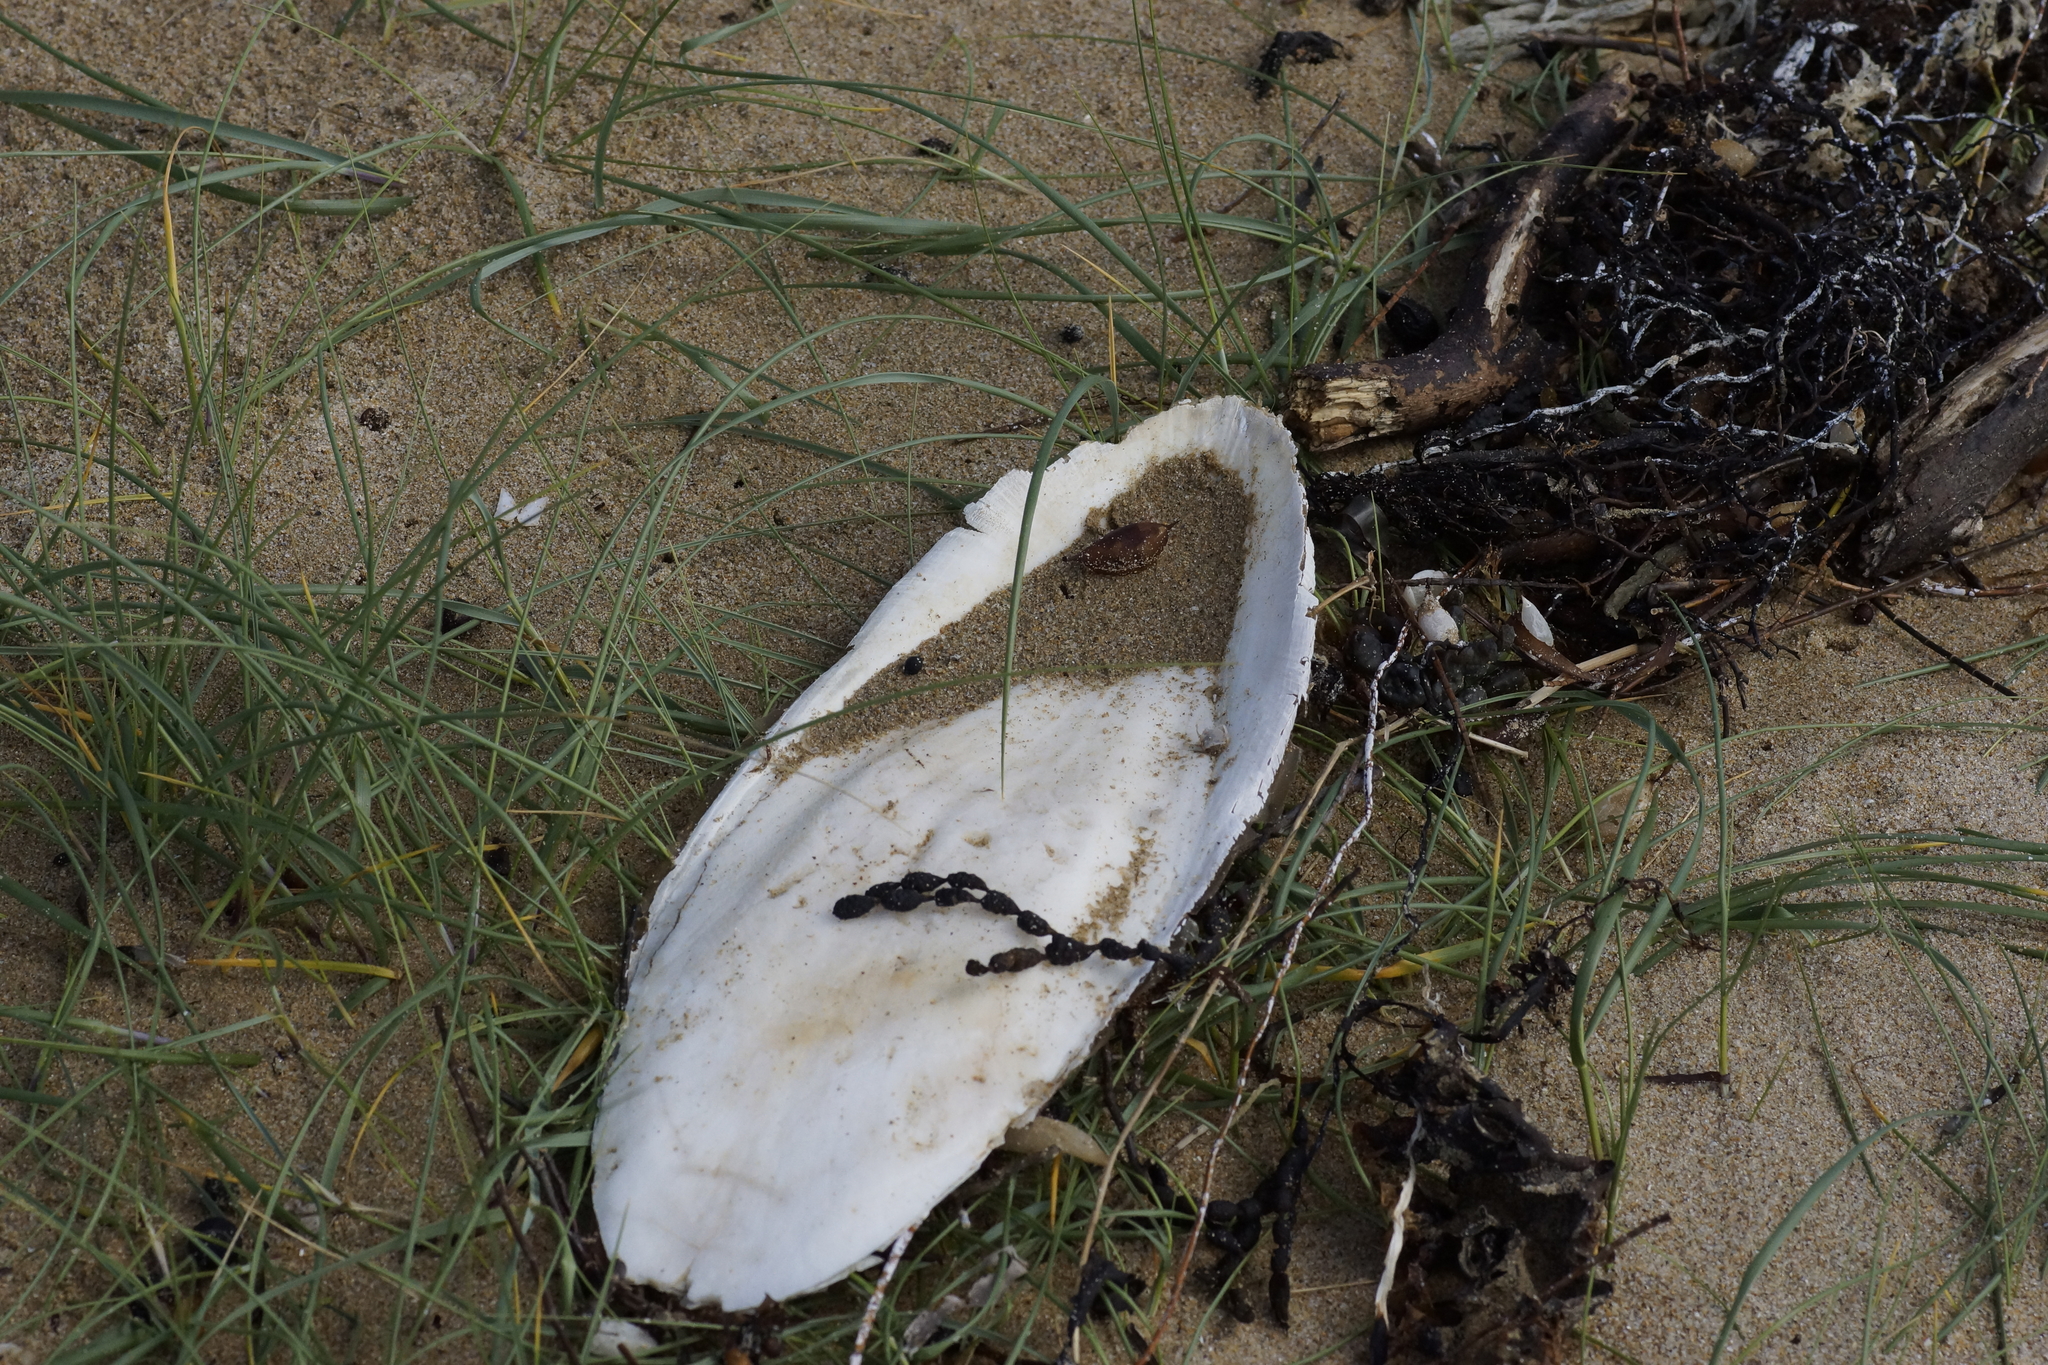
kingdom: Animalia
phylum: Mollusca
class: Cephalopoda
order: Sepiida
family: Sepiidae
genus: Ascarosepion
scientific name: Ascarosepion apama
